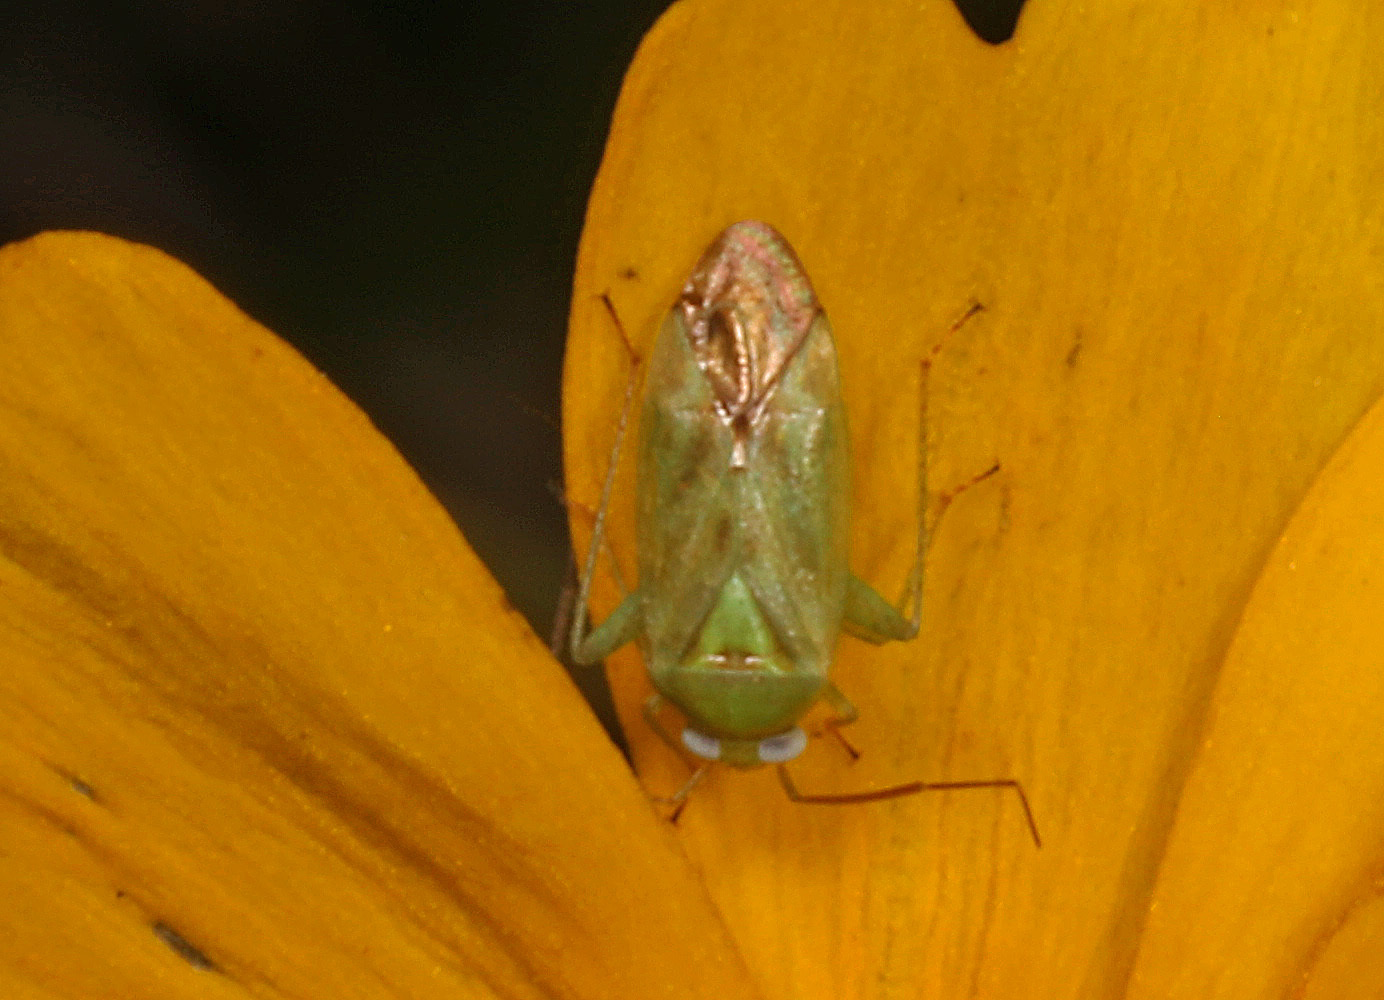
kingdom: Animalia
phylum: Arthropoda
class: Insecta
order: Hemiptera
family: Miridae
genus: Taylorilygus
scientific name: Taylorilygus apicalis
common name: Plant bug
